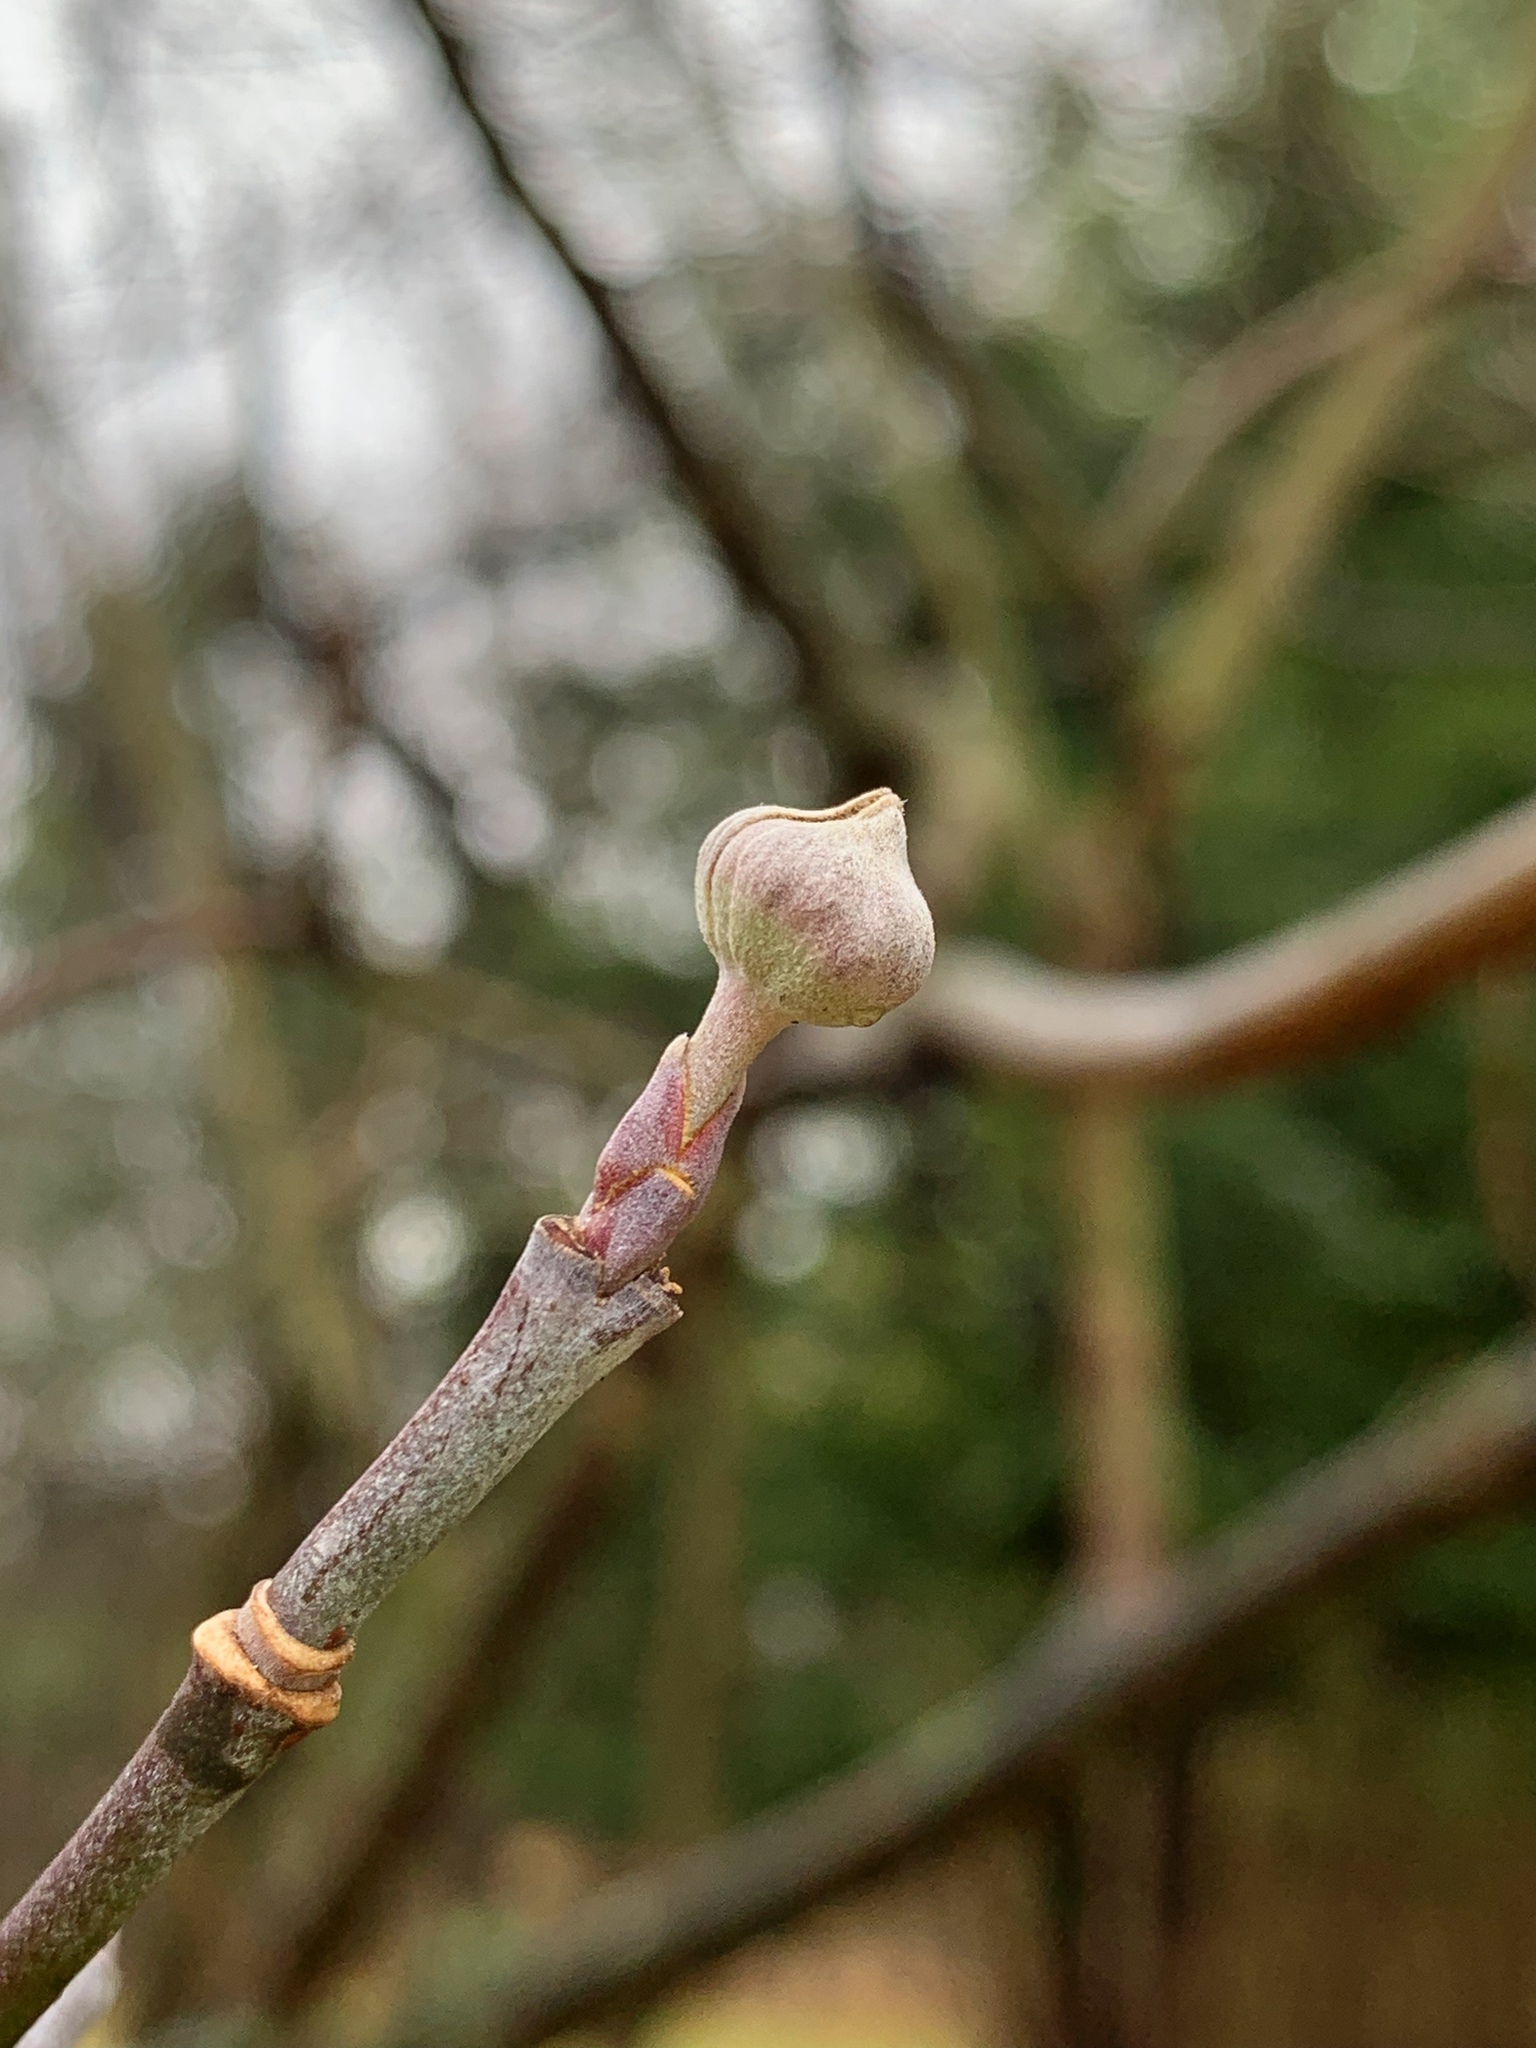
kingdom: Plantae
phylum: Tracheophyta
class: Magnoliopsida
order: Cornales
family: Cornaceae
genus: Cornus
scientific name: Cornus florida
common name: Flowering dogwood
